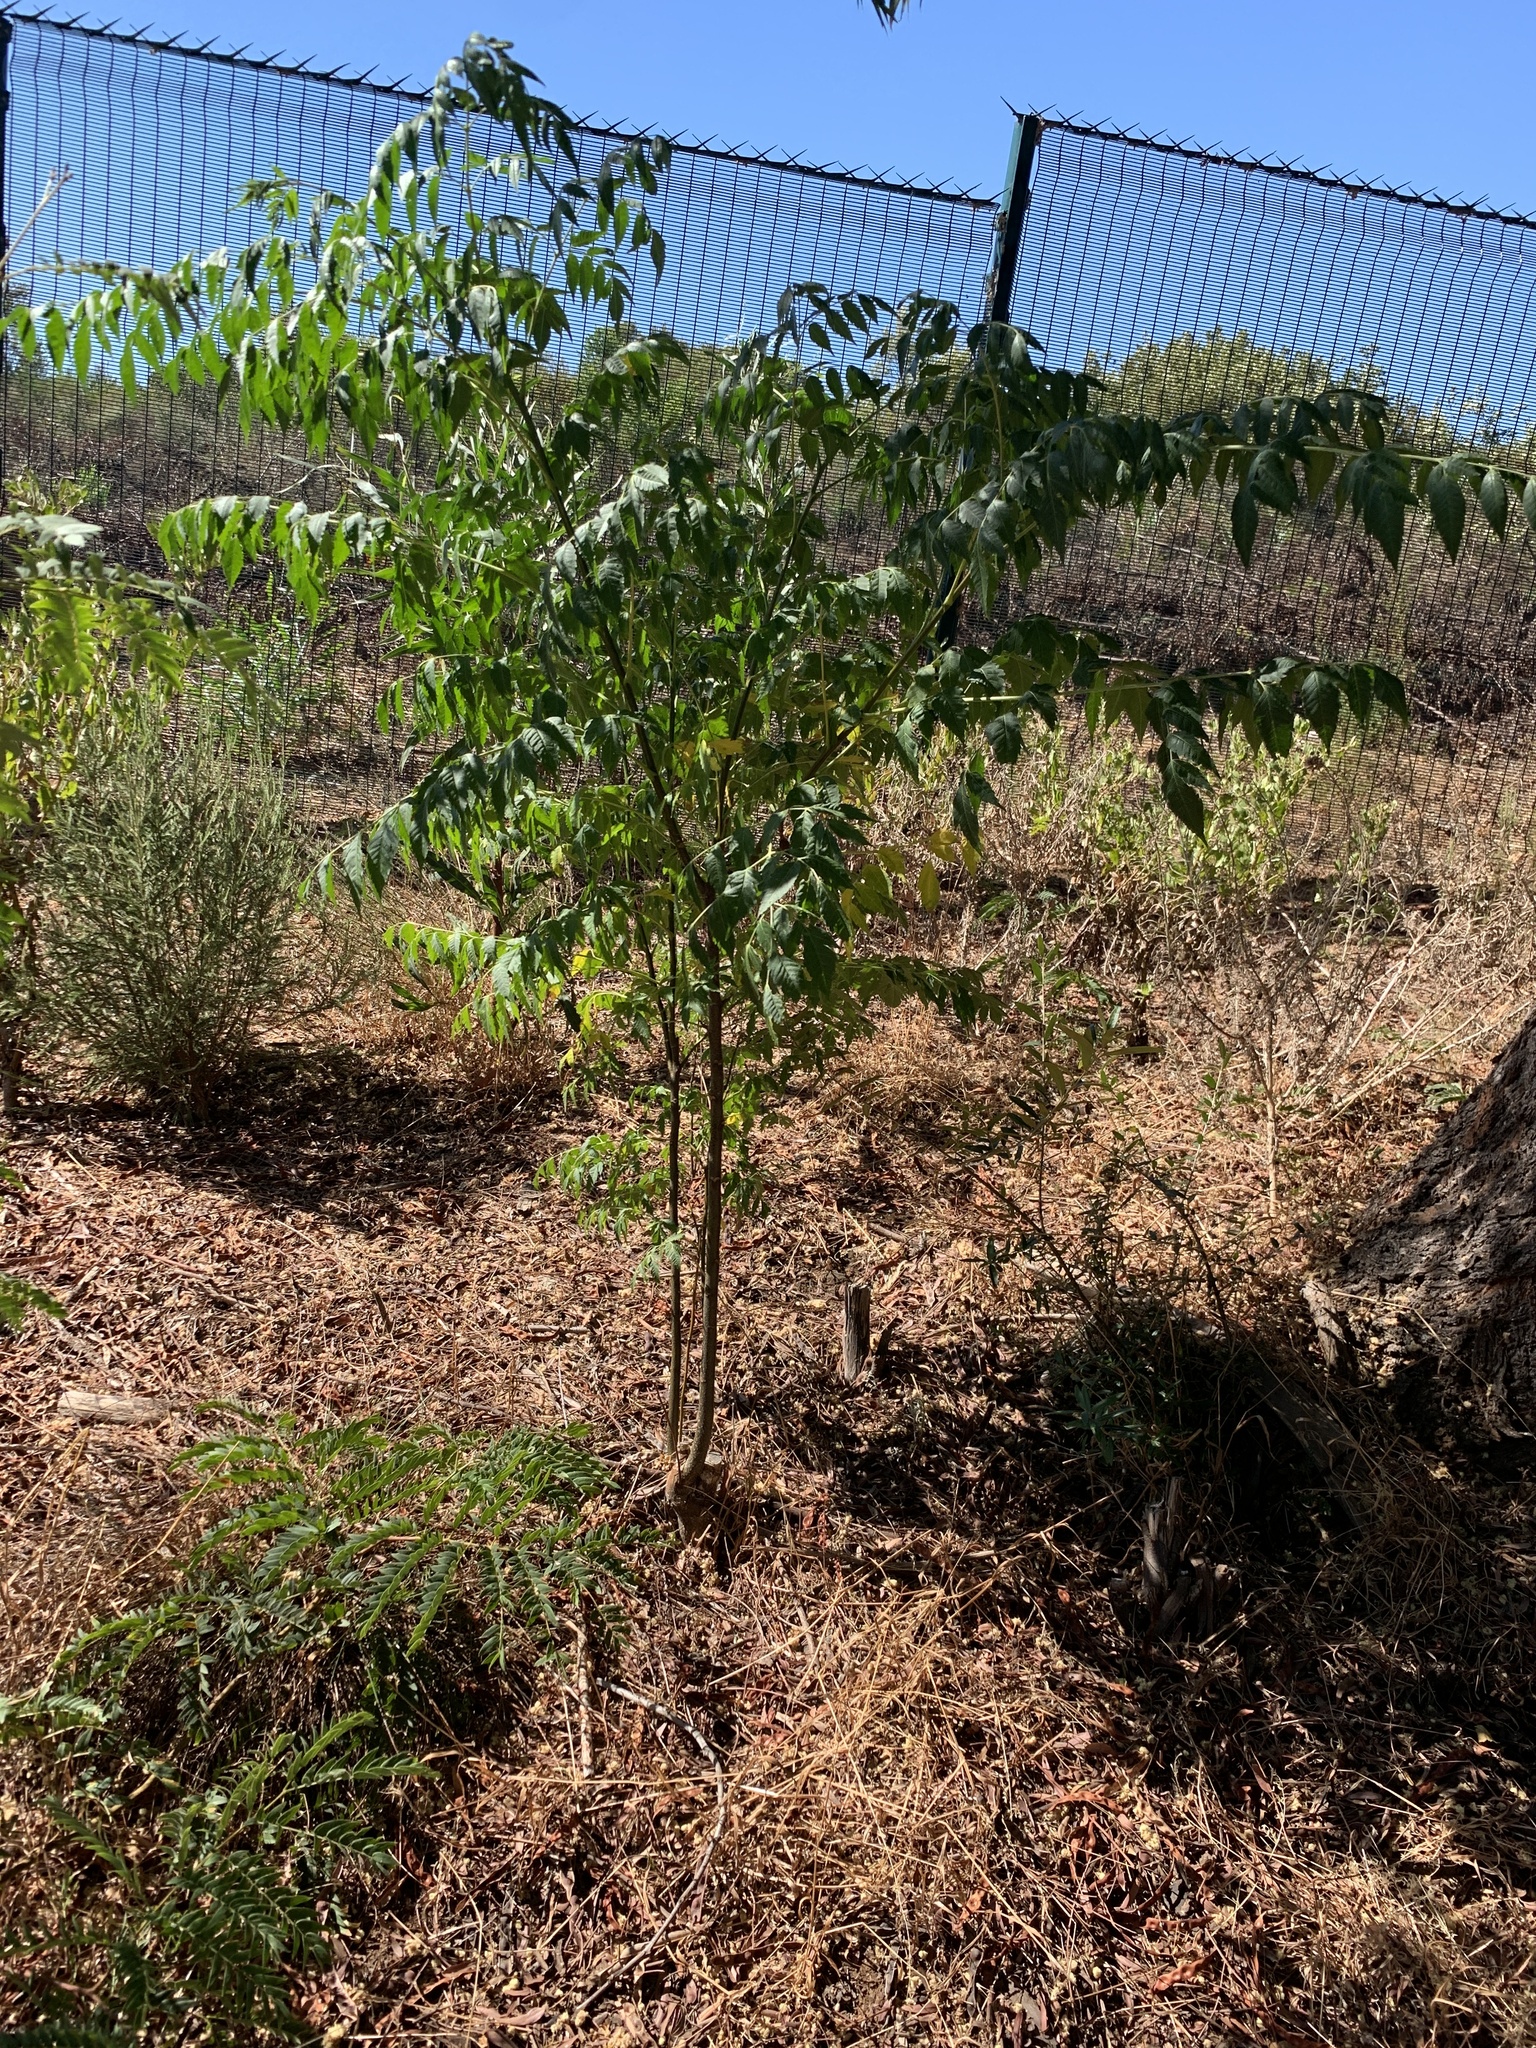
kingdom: Plantae
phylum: Tracheophyta
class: Magnoliopsida
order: Sapindales
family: Meliaceae
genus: Melia
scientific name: Melia azedarach
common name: Chinaberrytree
